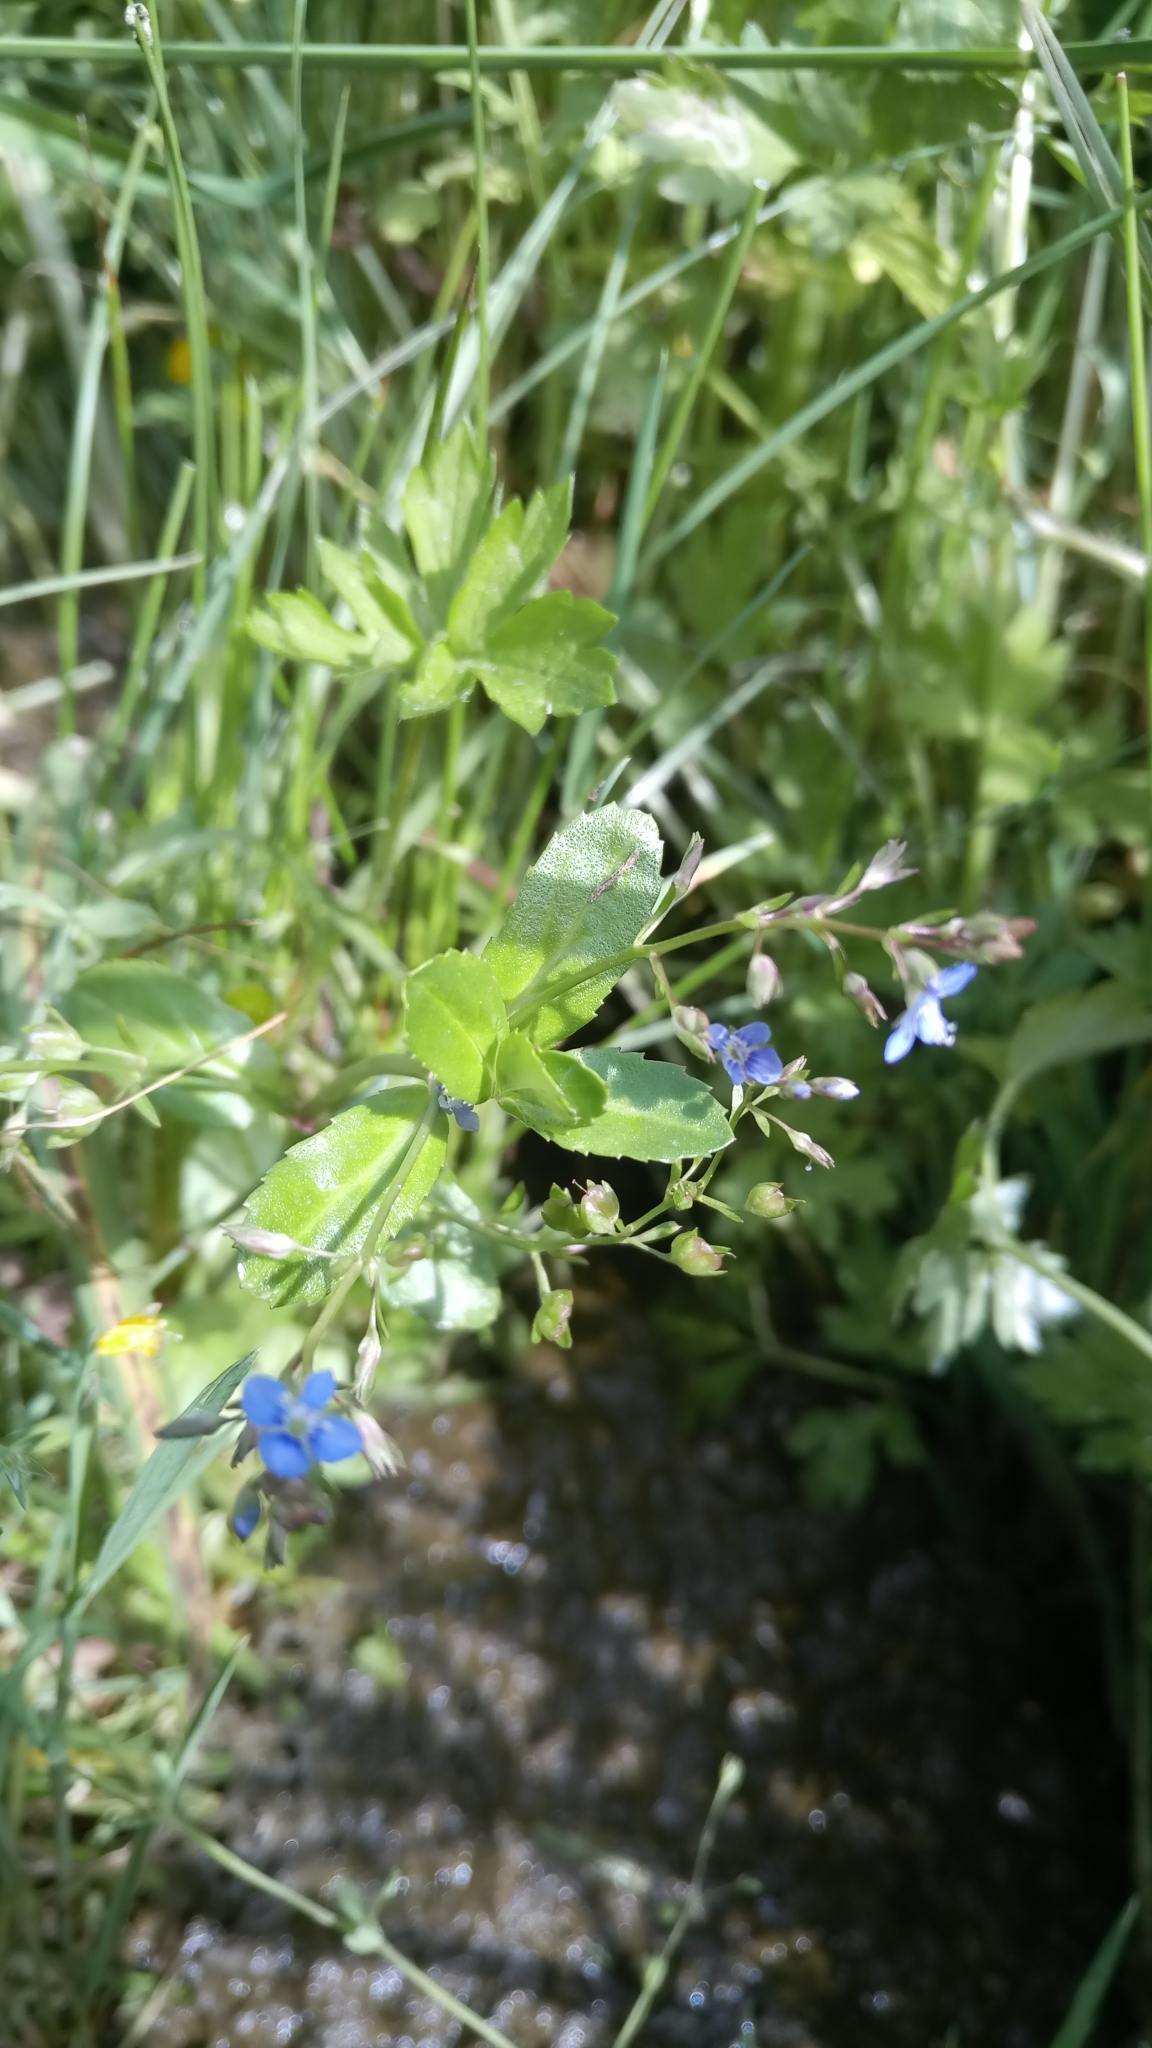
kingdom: Plantae
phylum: Tracheophyta
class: Magnoliopsida
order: Lamiales
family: Plantaginaceae
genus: Veronica
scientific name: Veronica beccabunga
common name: Brooklime
